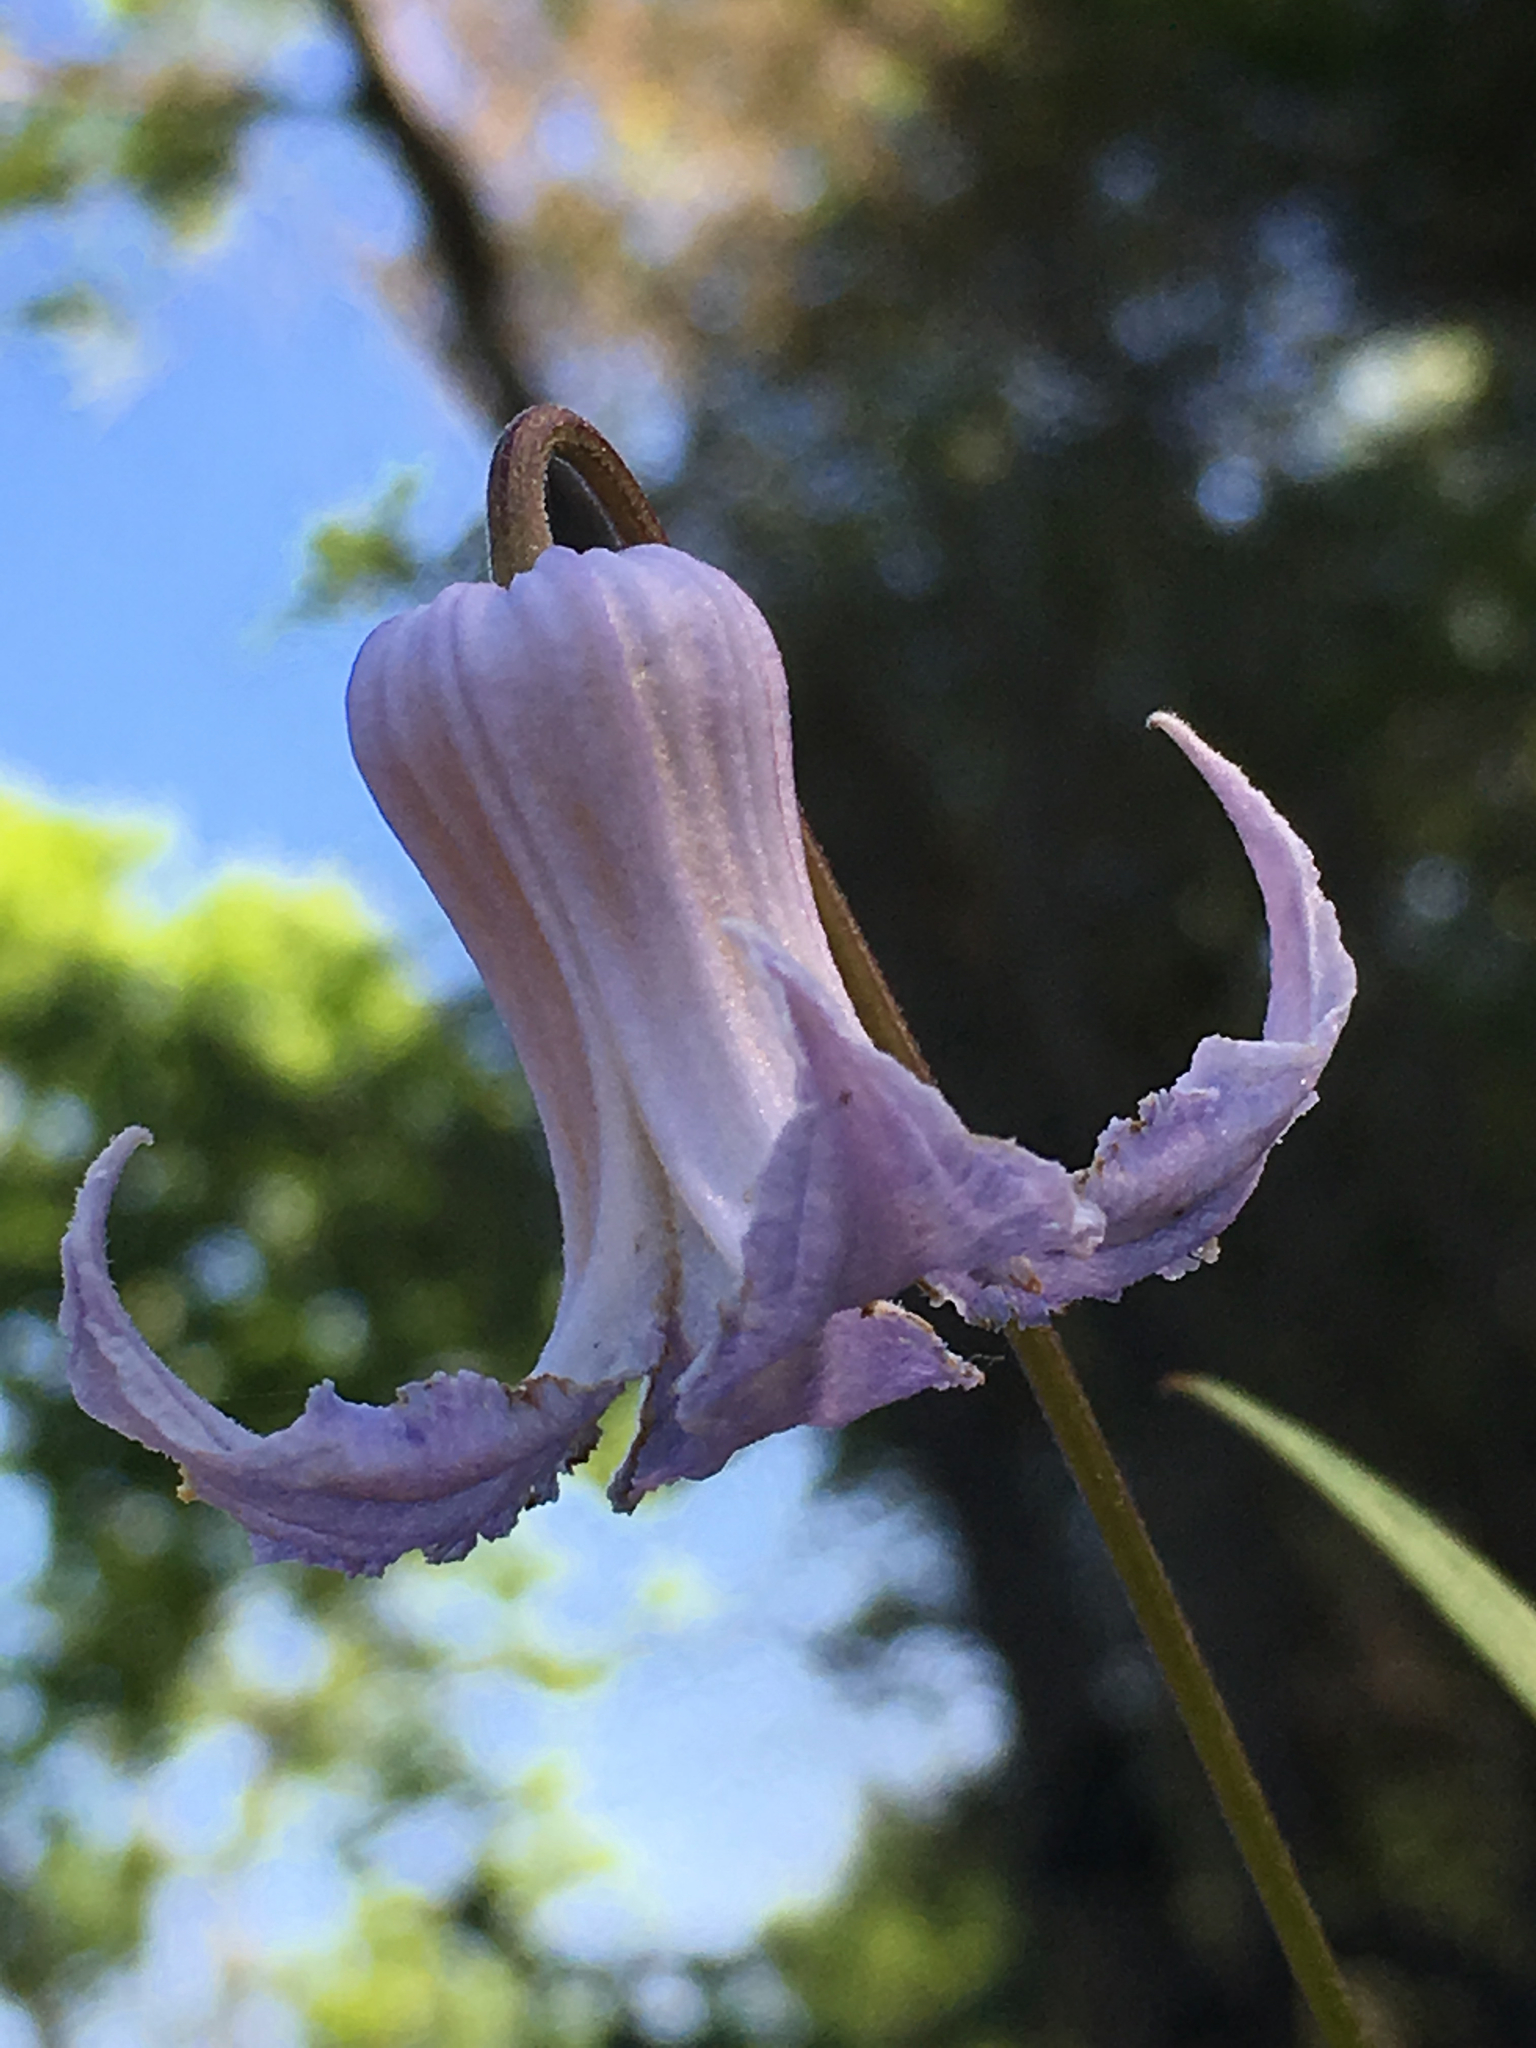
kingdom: Plantae
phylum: Tracheophyta
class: Magnoliopsida
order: Ranunculales
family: Ranunculaceae
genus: Clematis
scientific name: Clematis crispa
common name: Curly clematis
